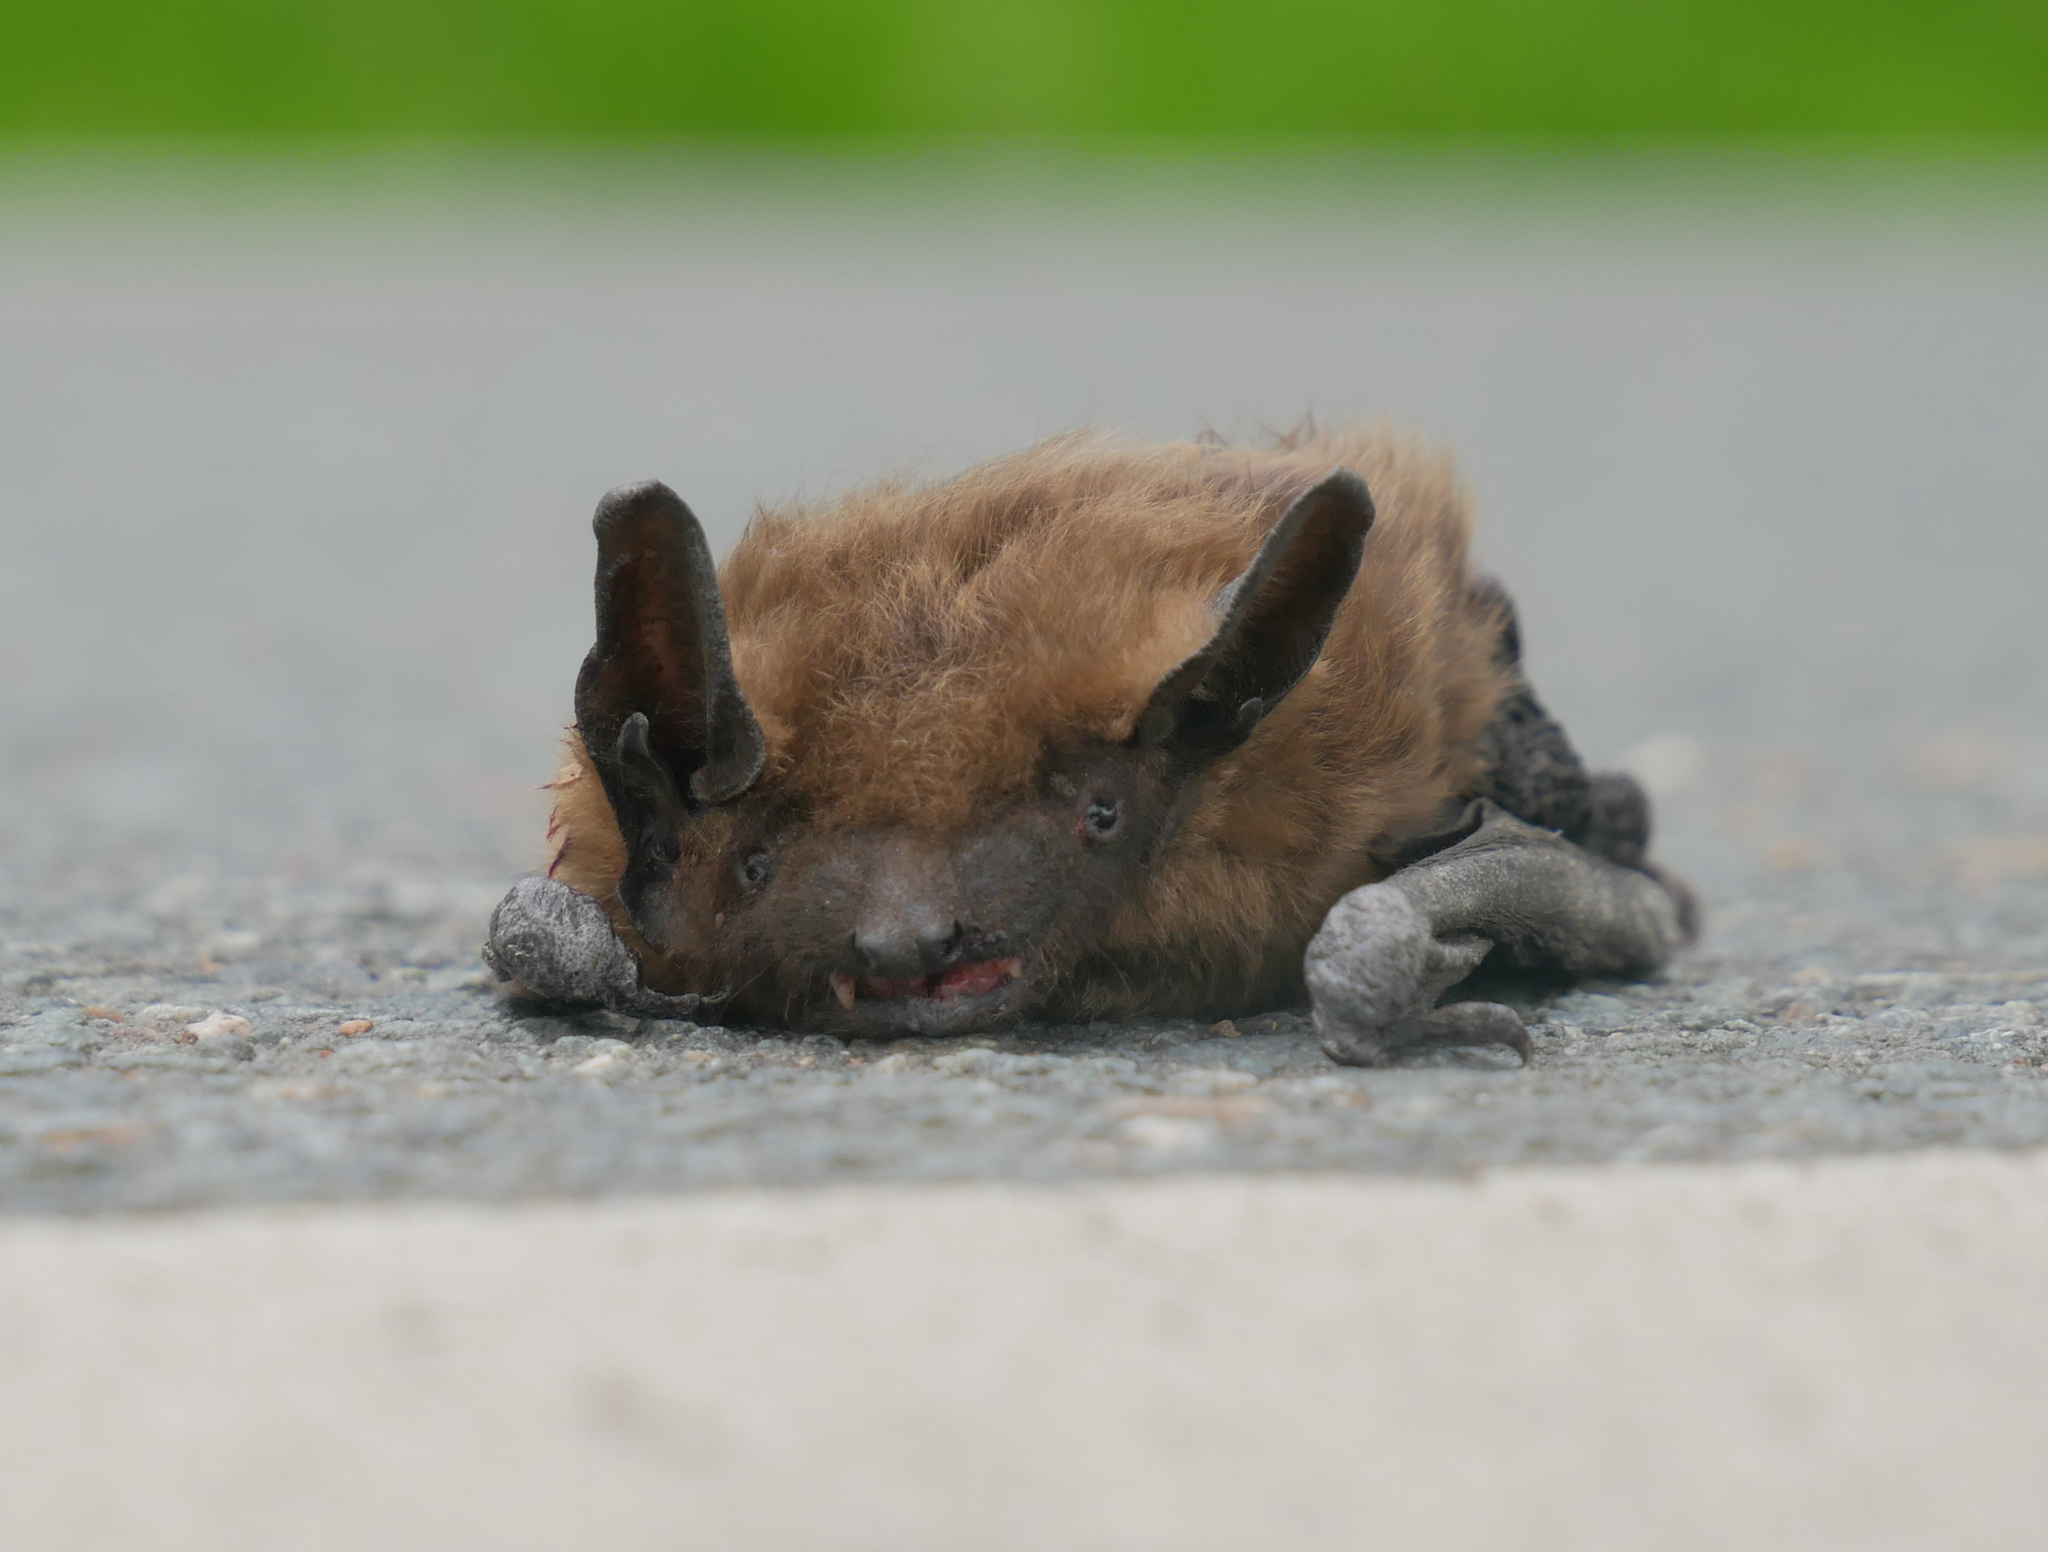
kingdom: Animalia
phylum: Chordata
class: Mammalia
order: Chiroptera
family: Vespertilionidae
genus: Eptesicus
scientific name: Eptesicus serotinus
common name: Serotine
